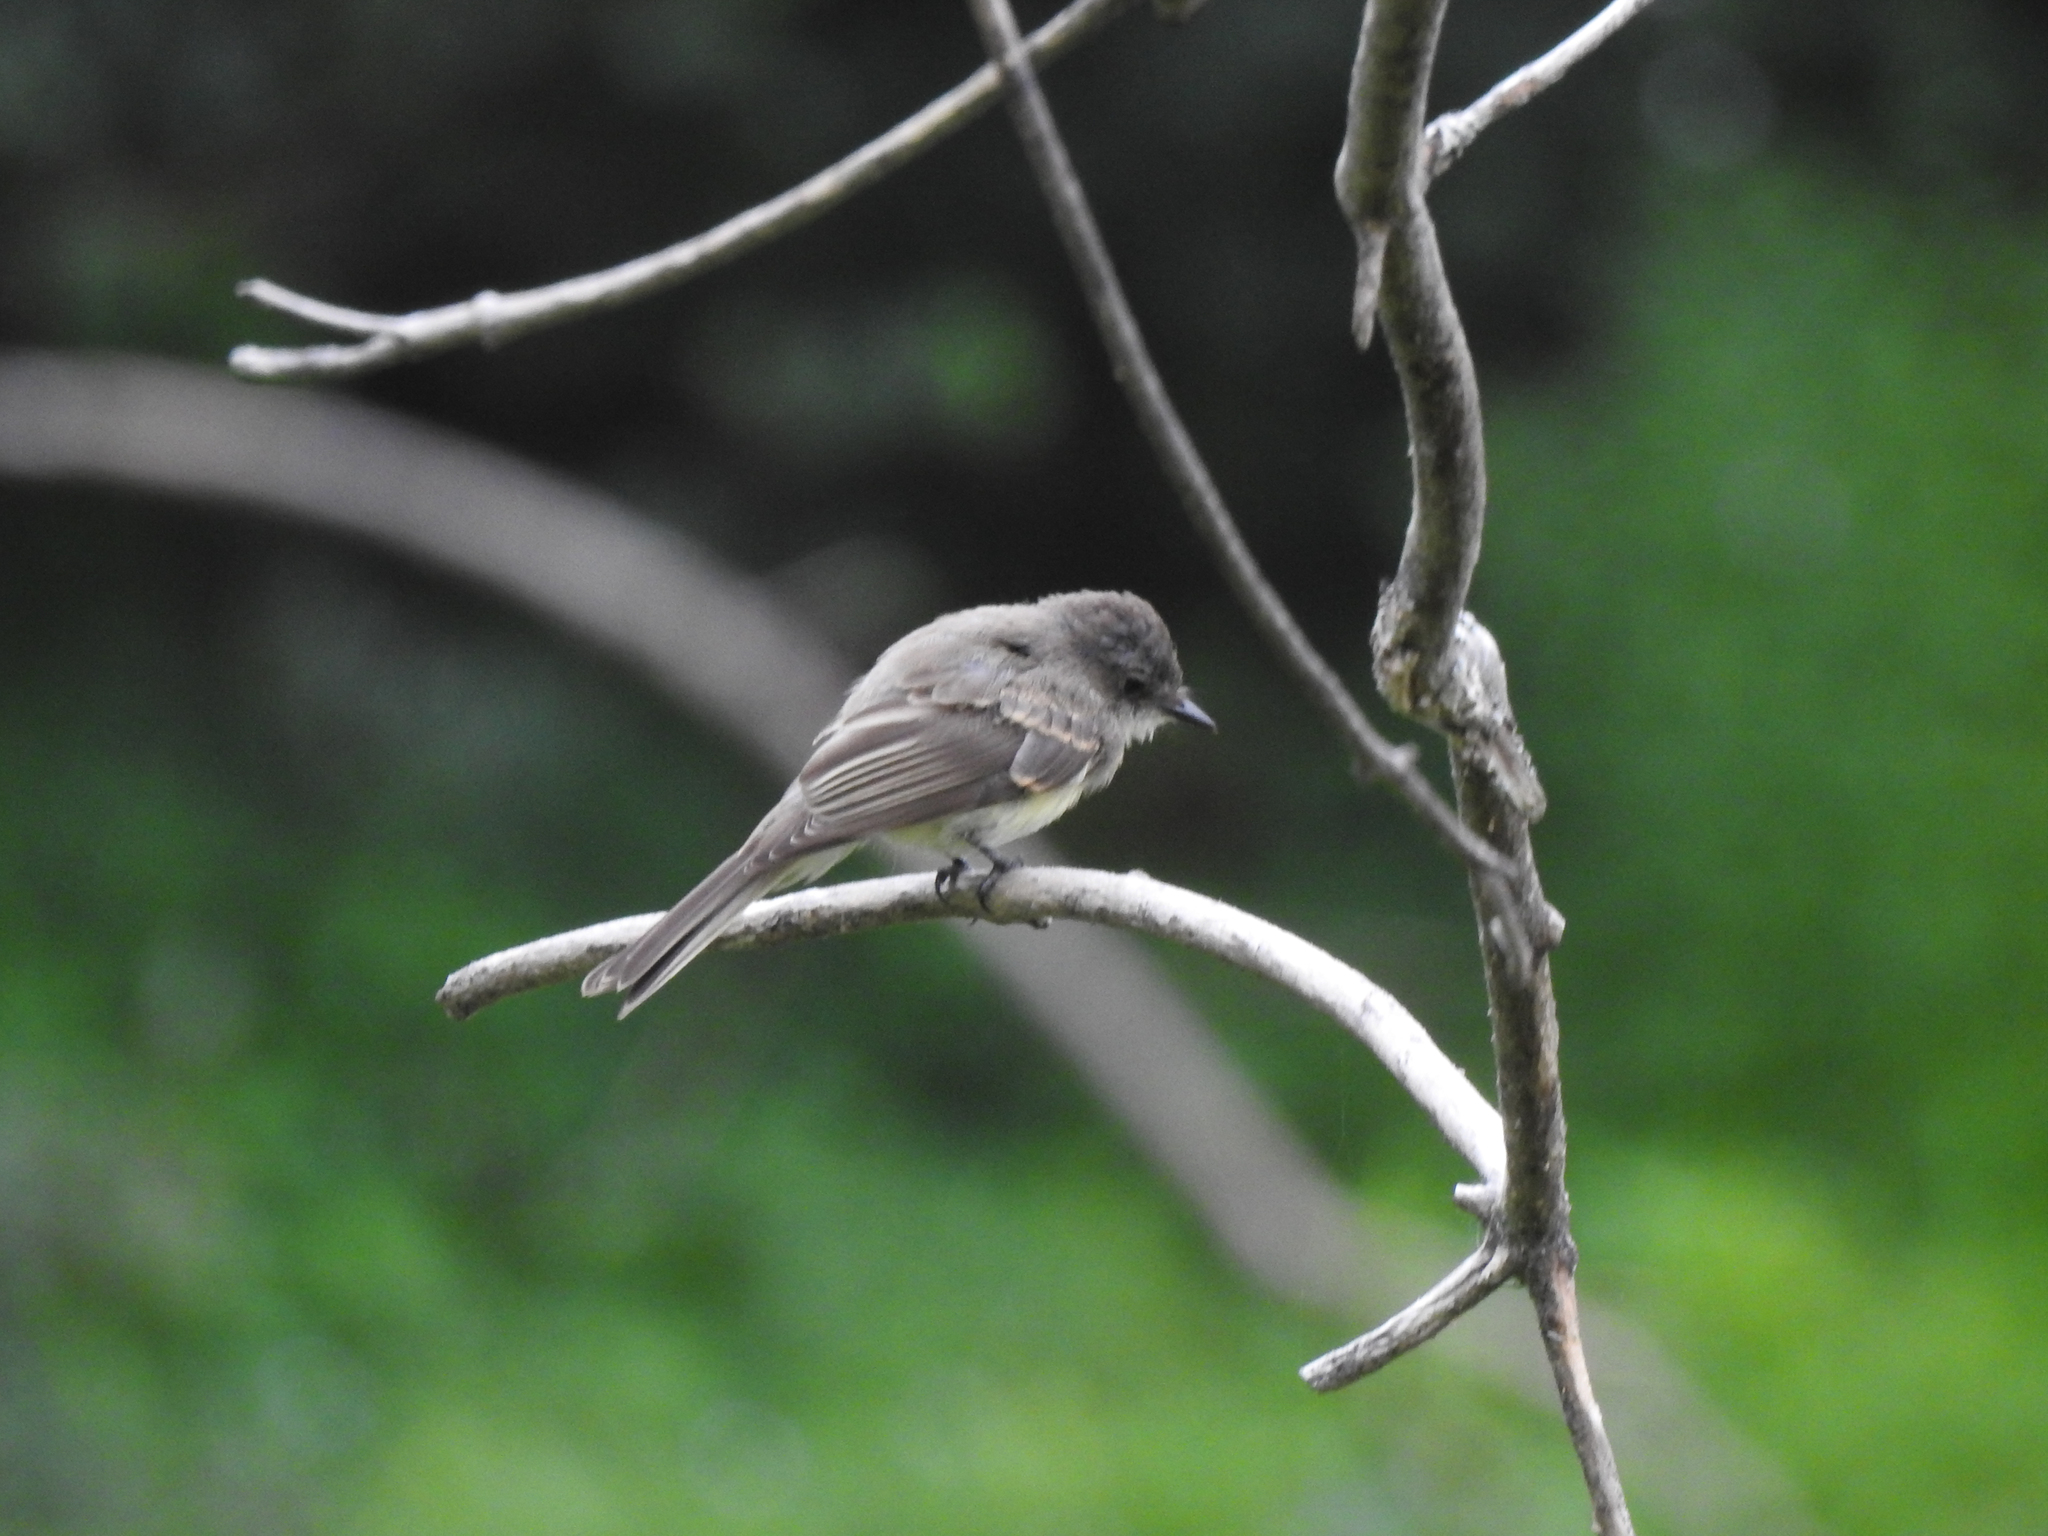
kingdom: Animalia
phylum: Chordata
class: Aves
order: Passeriformes
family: Tyrannidae
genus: Sayornis
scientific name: Sayornis phoebe
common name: Eastern phoebe
